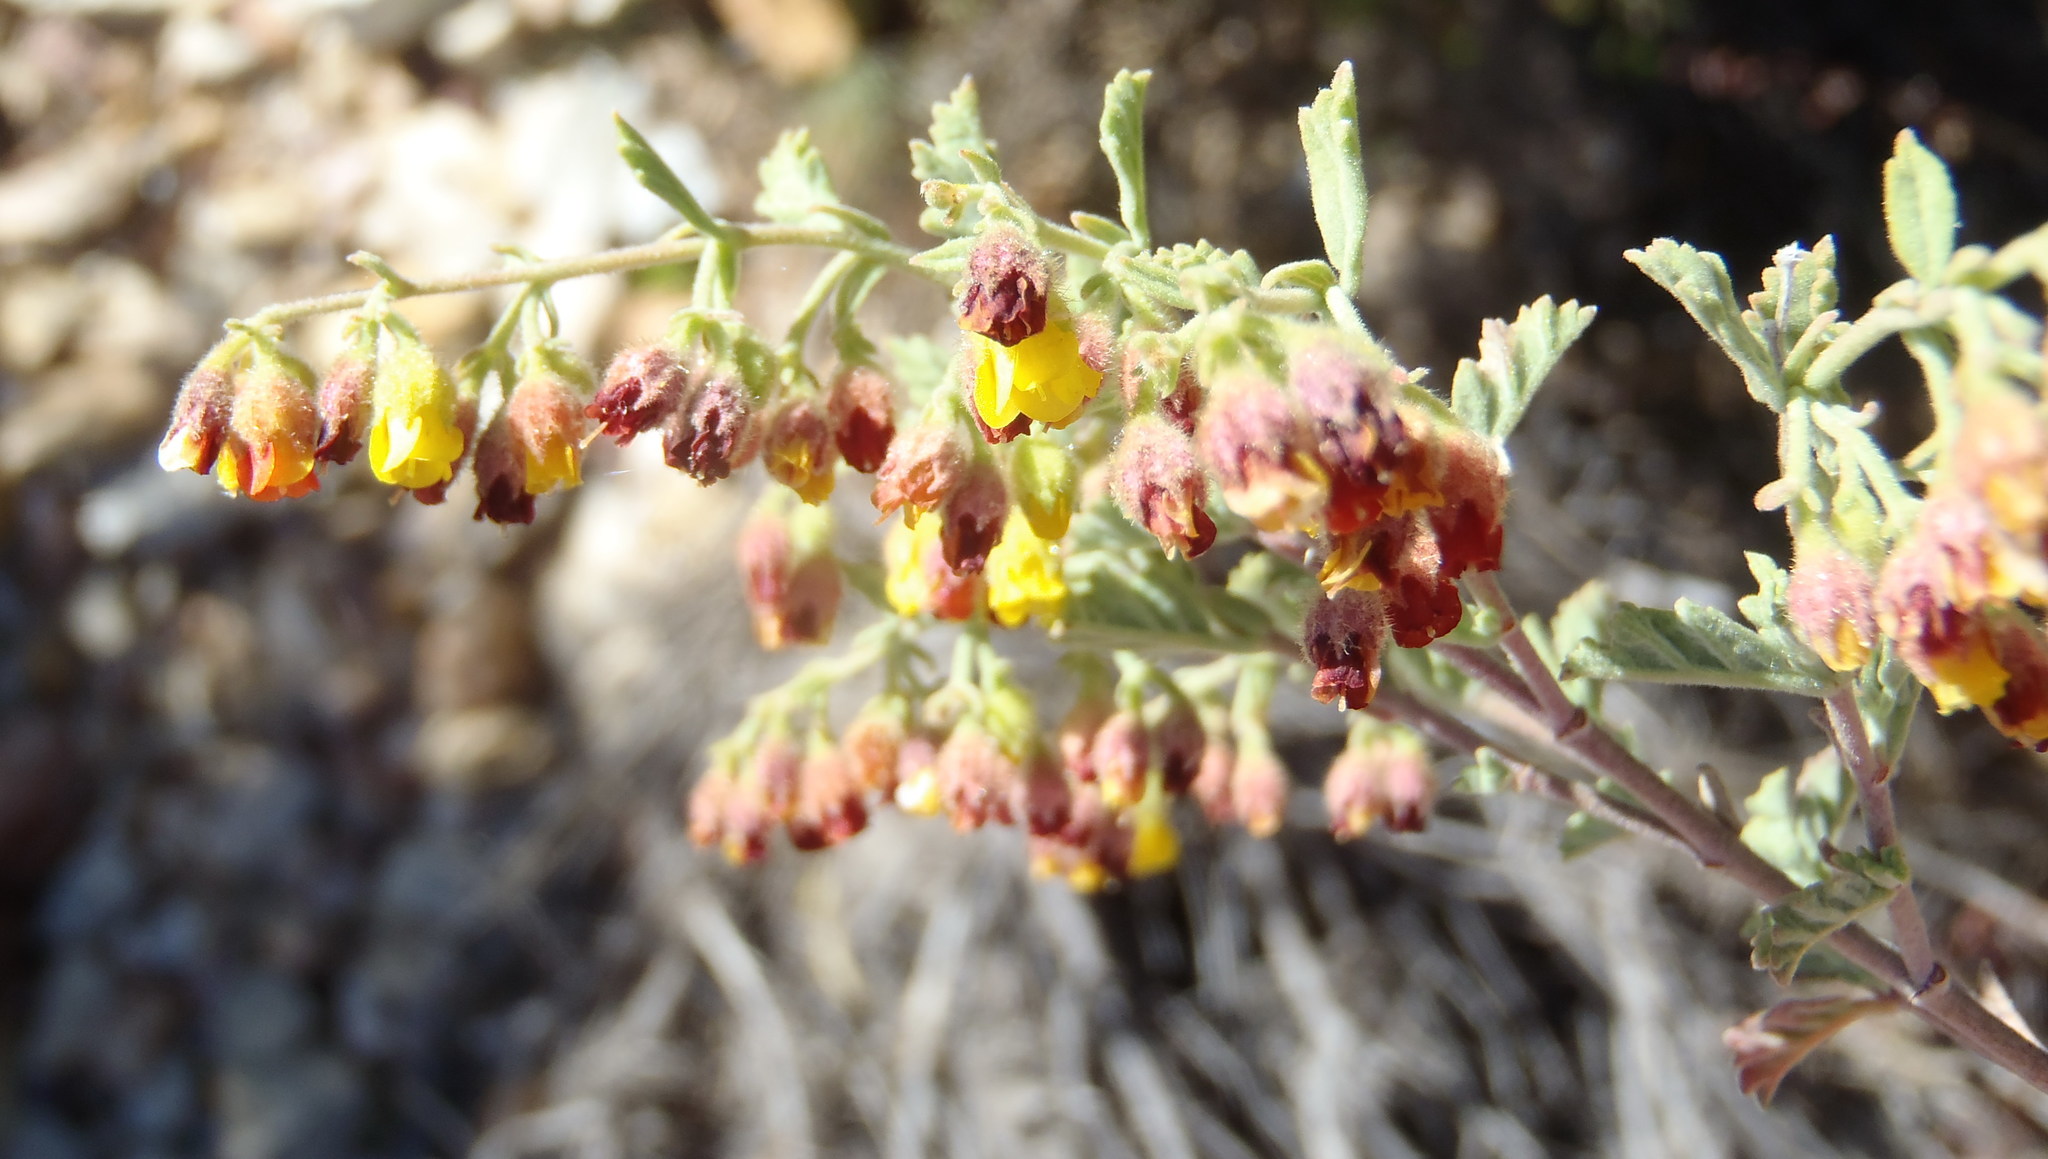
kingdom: Plantae
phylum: Tracheophyta
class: Magnoliopsida
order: Malvales
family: Malvaceae
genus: Hermannia
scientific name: Hermannia holosericea
